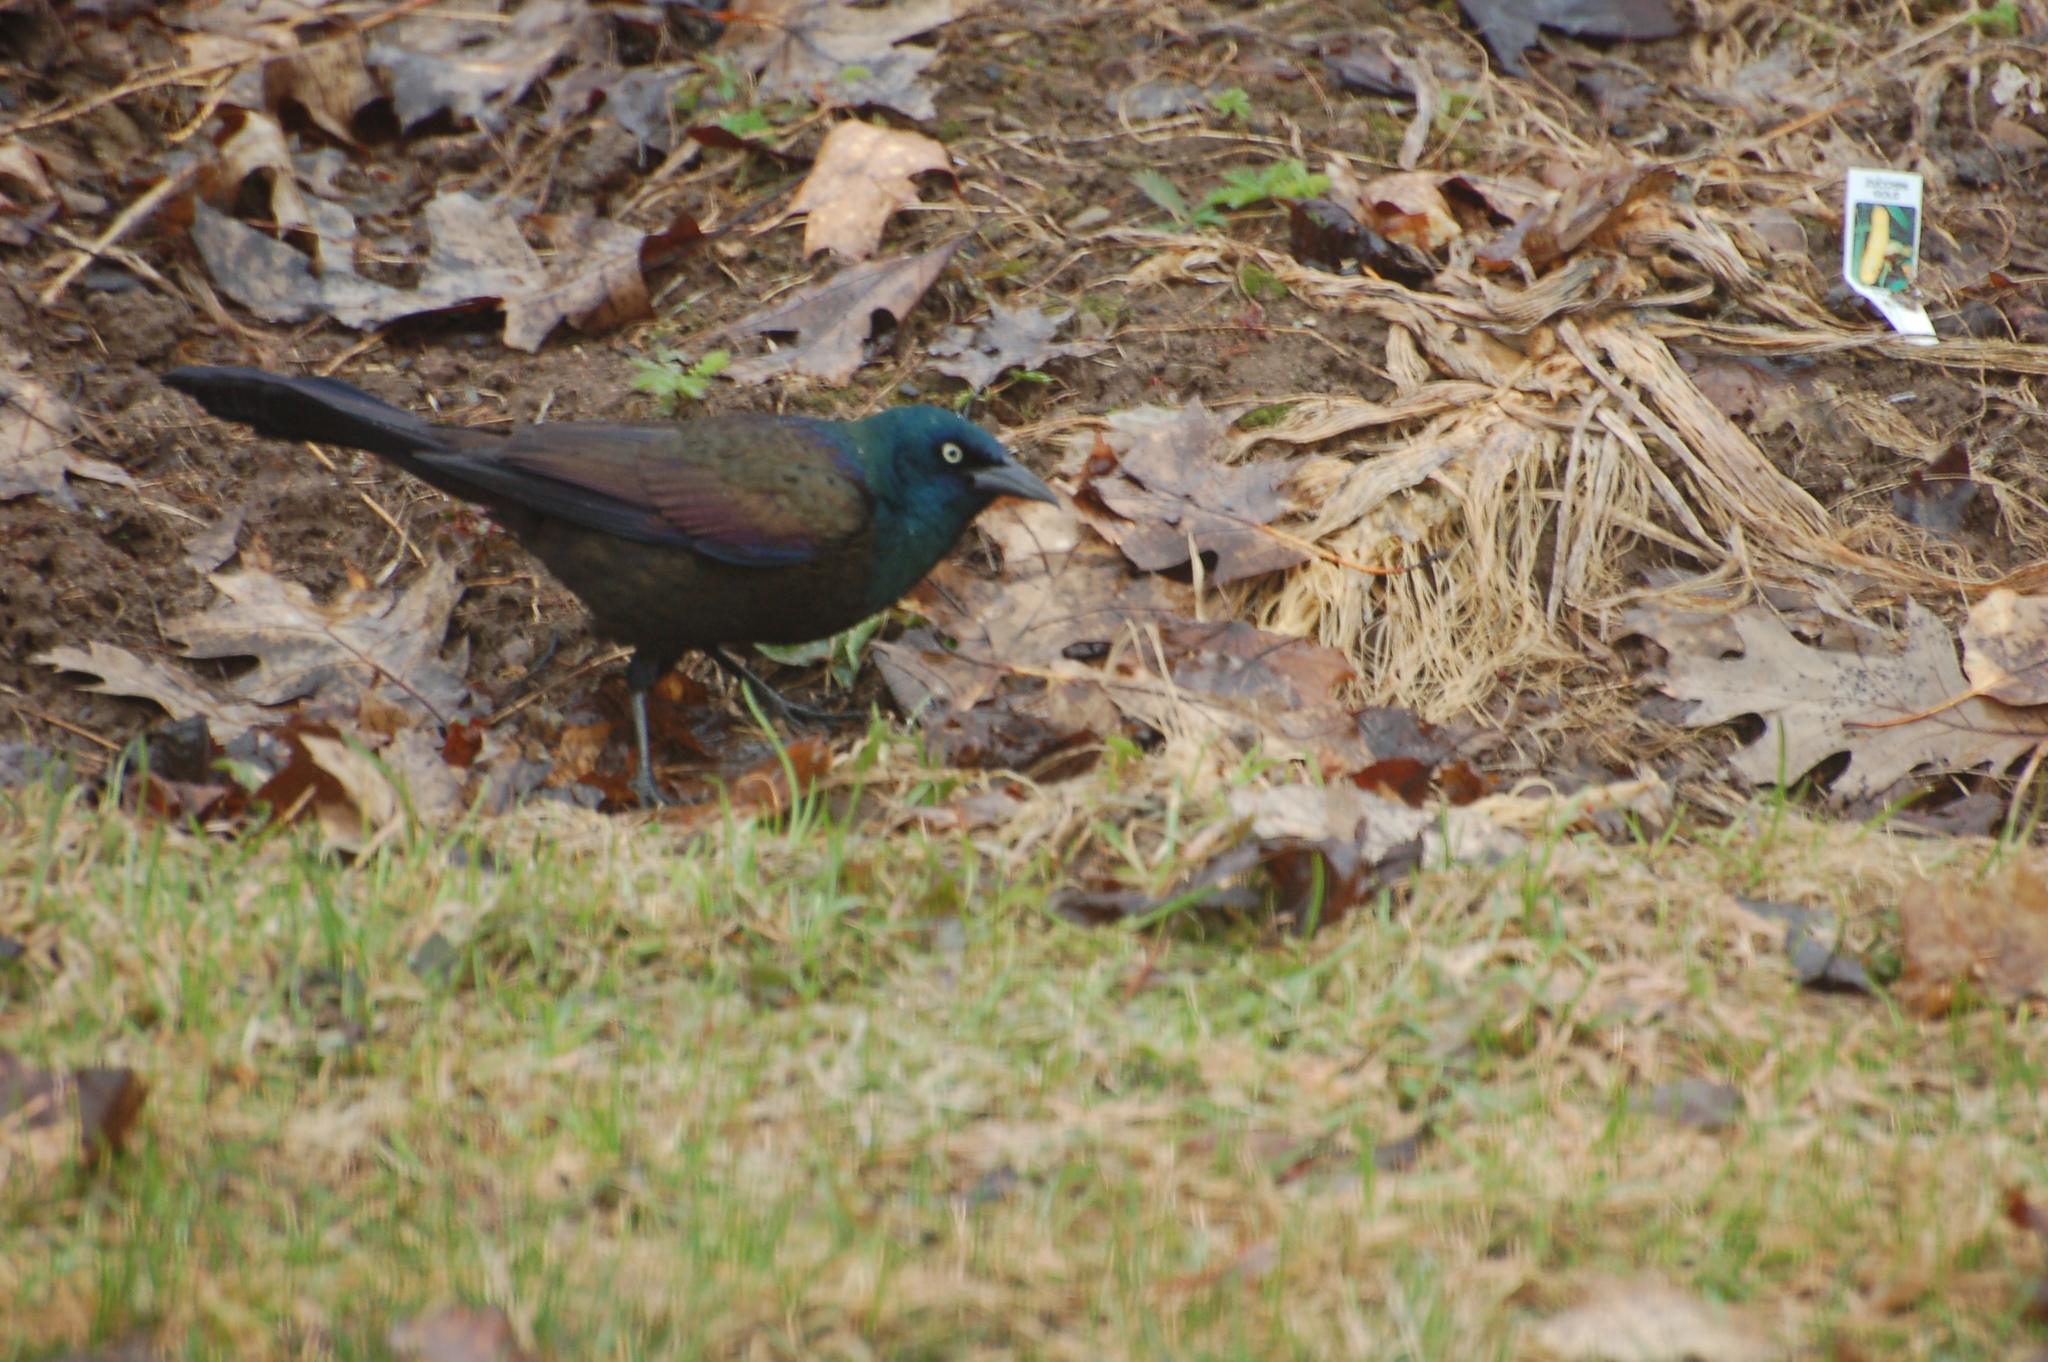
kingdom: Animalia
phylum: Chordata
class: Aves
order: Passeriformes
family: Icteridae
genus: Quiscalus
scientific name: Quiscalus quiscula
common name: Common grackle
